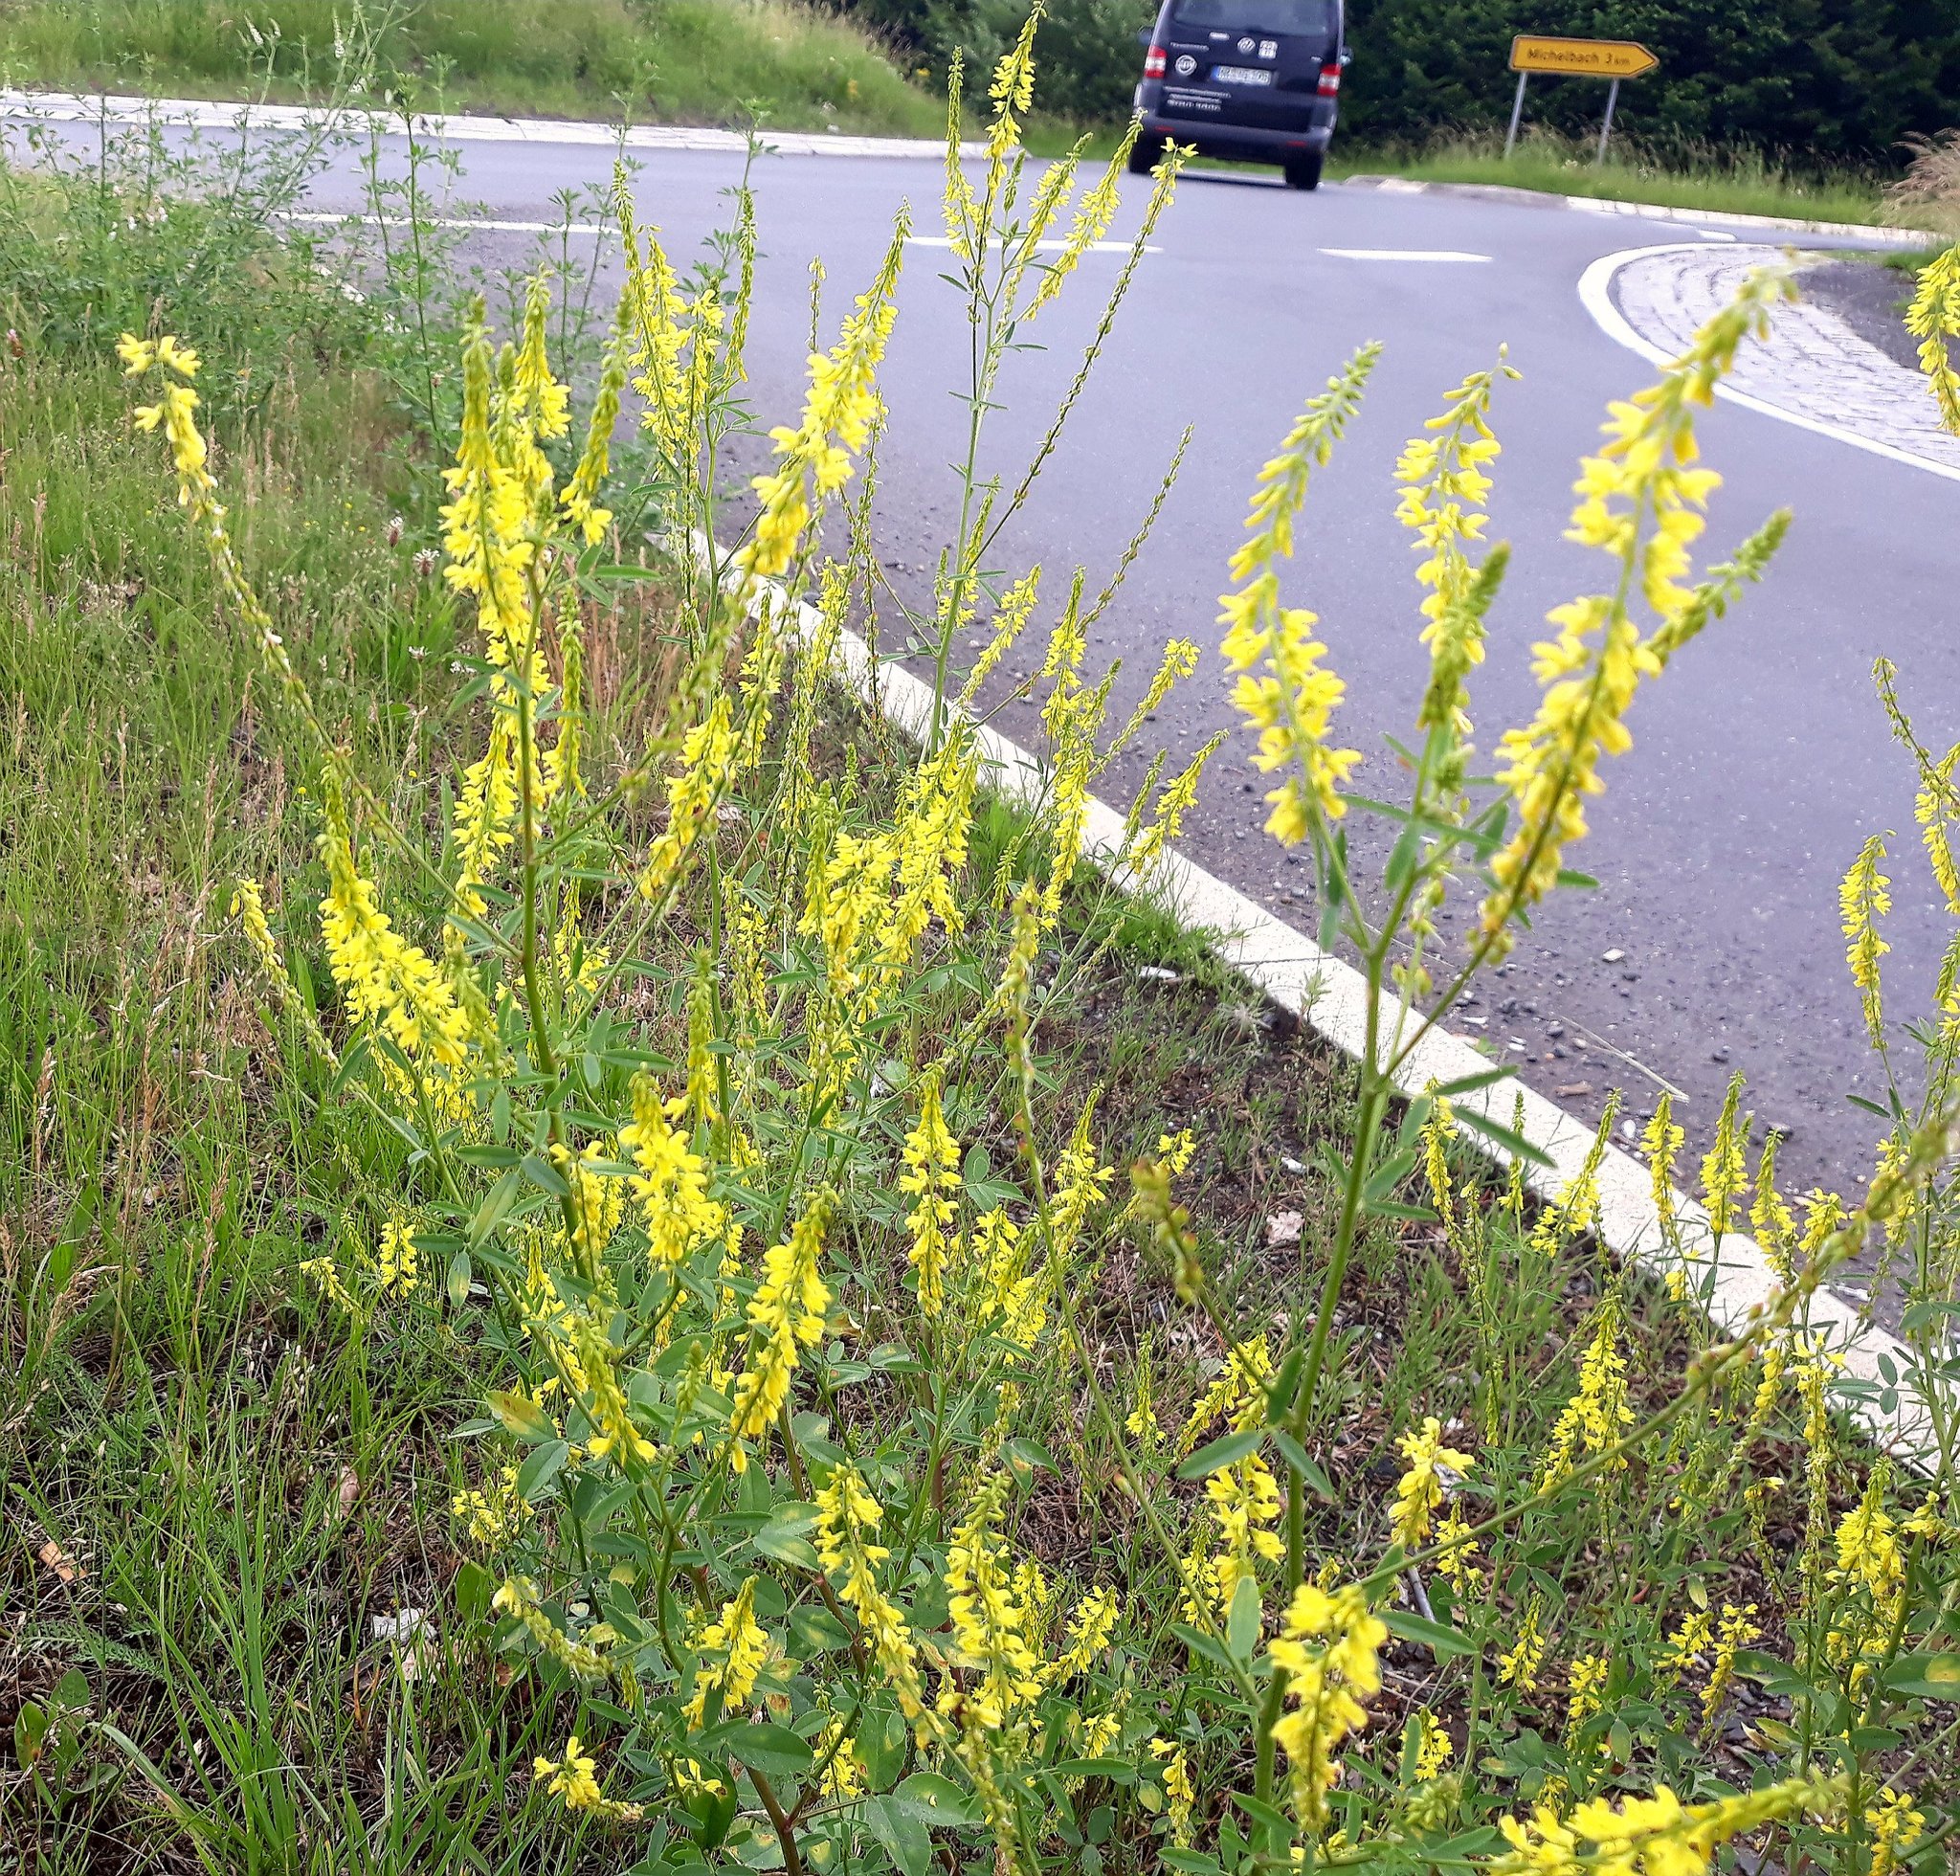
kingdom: Plantae
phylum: Tracheophyta
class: Magnoliopsida
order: Fabales
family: Fabaceae
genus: Melilotus
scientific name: Melilotus officinalis
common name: Sweetclover
